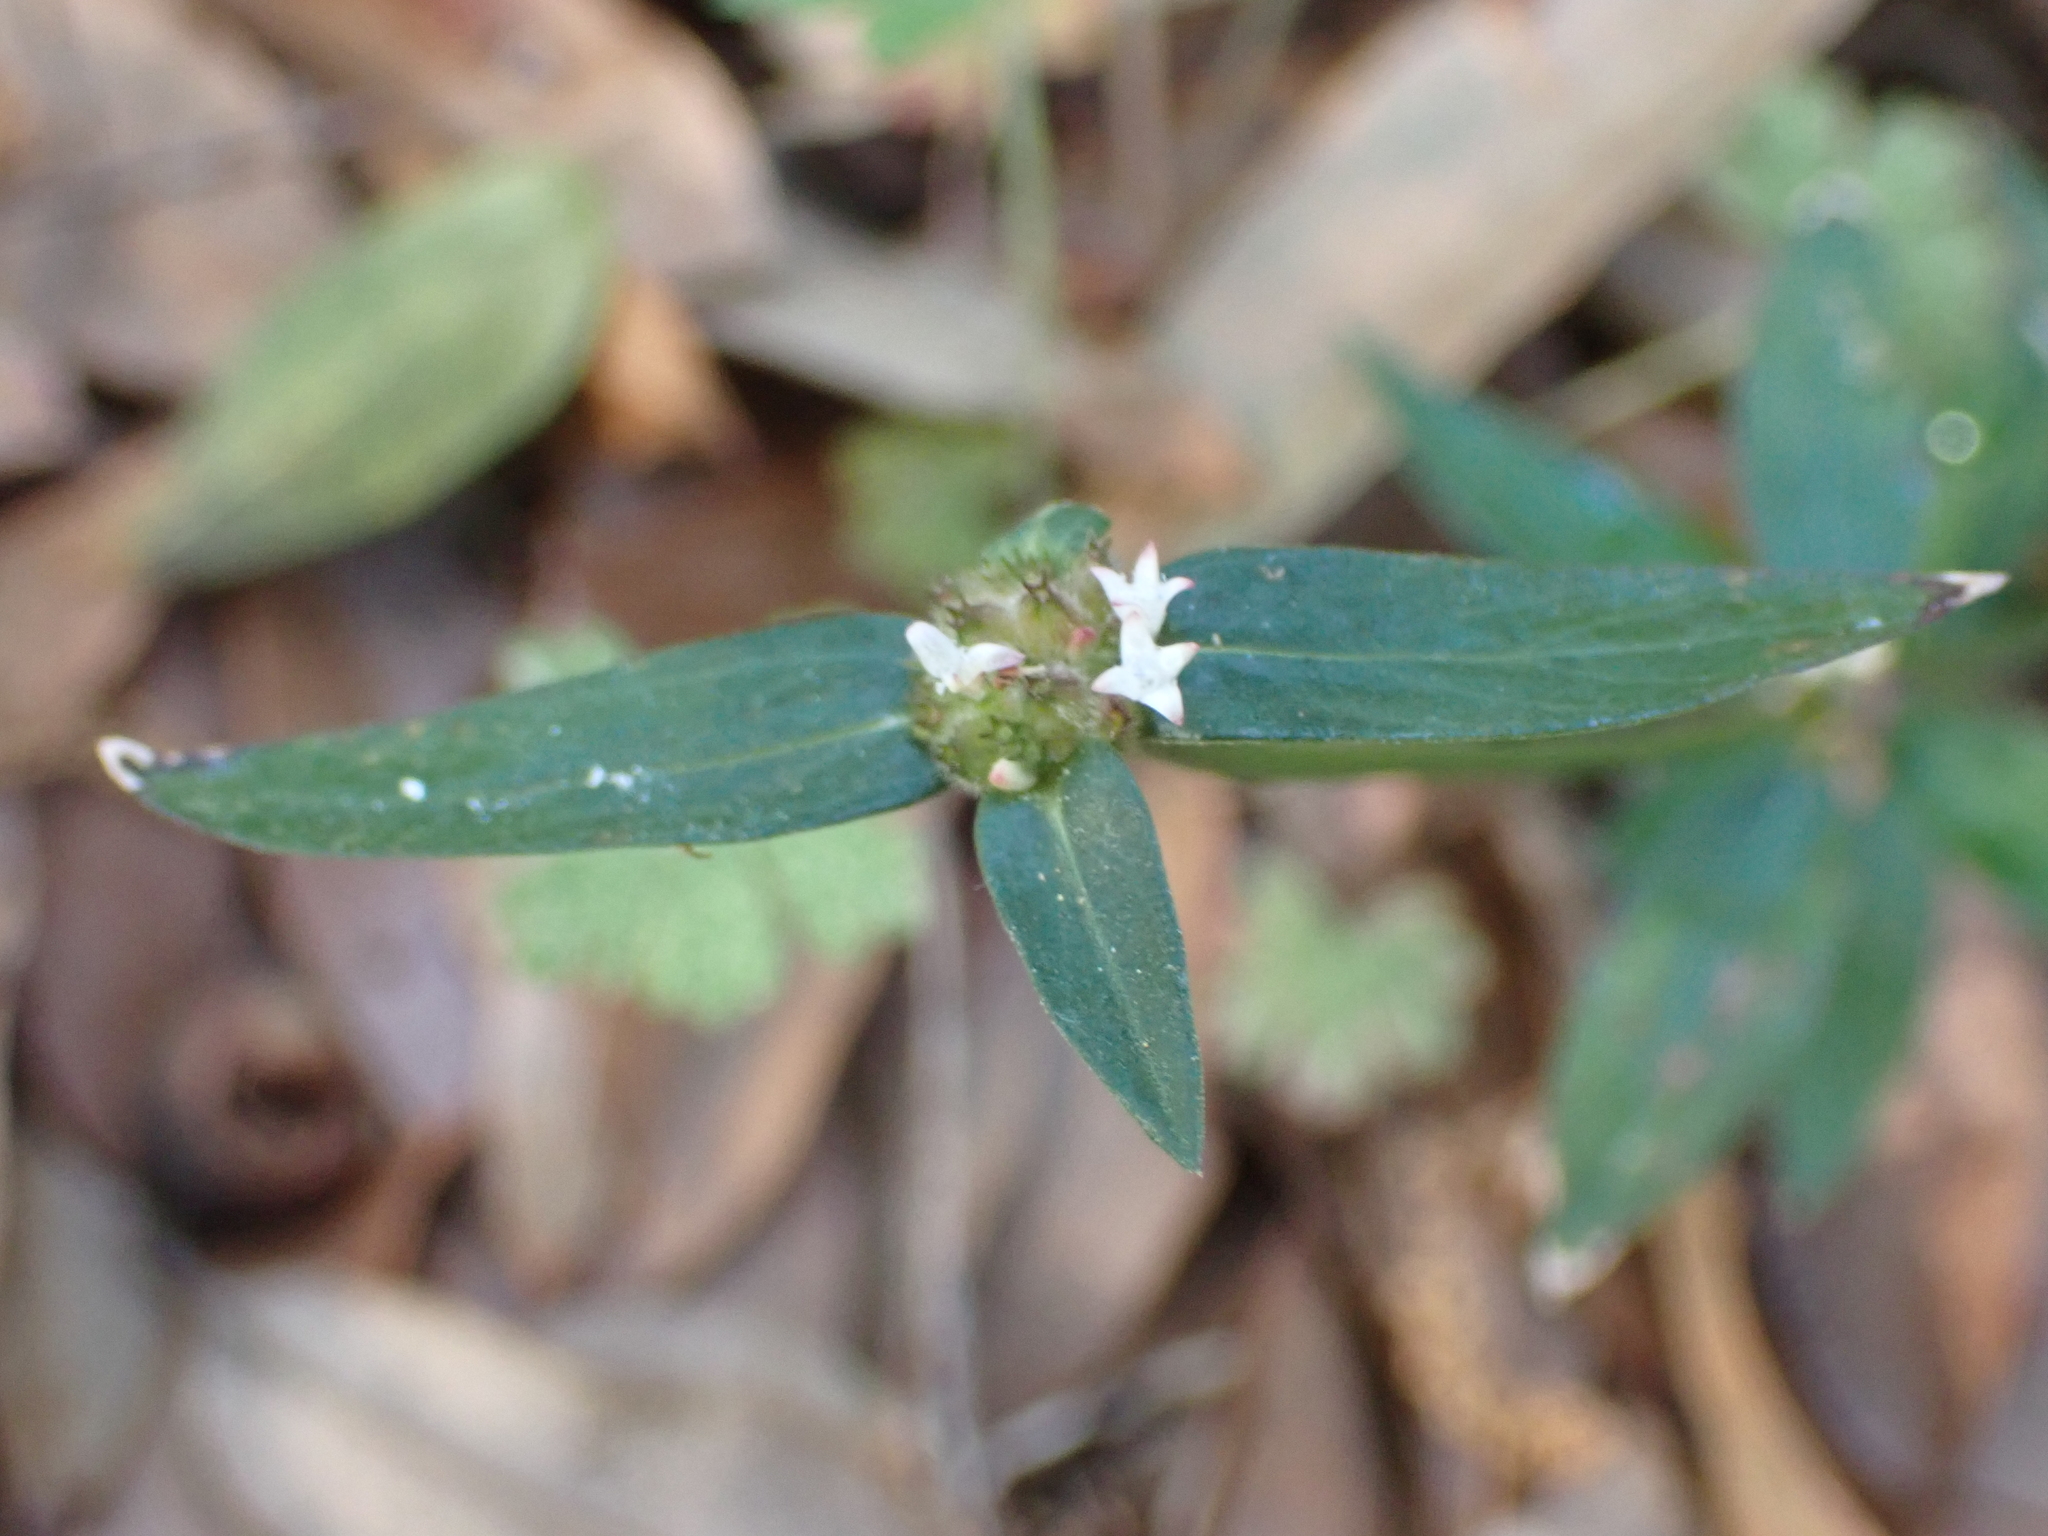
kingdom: Plantae
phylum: Tracheophyta
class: Magnoliopsida
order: Gentianales
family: Rubiaceae
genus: Spermacoce
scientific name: Spermacoce remota
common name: Woodland false buttonweed
